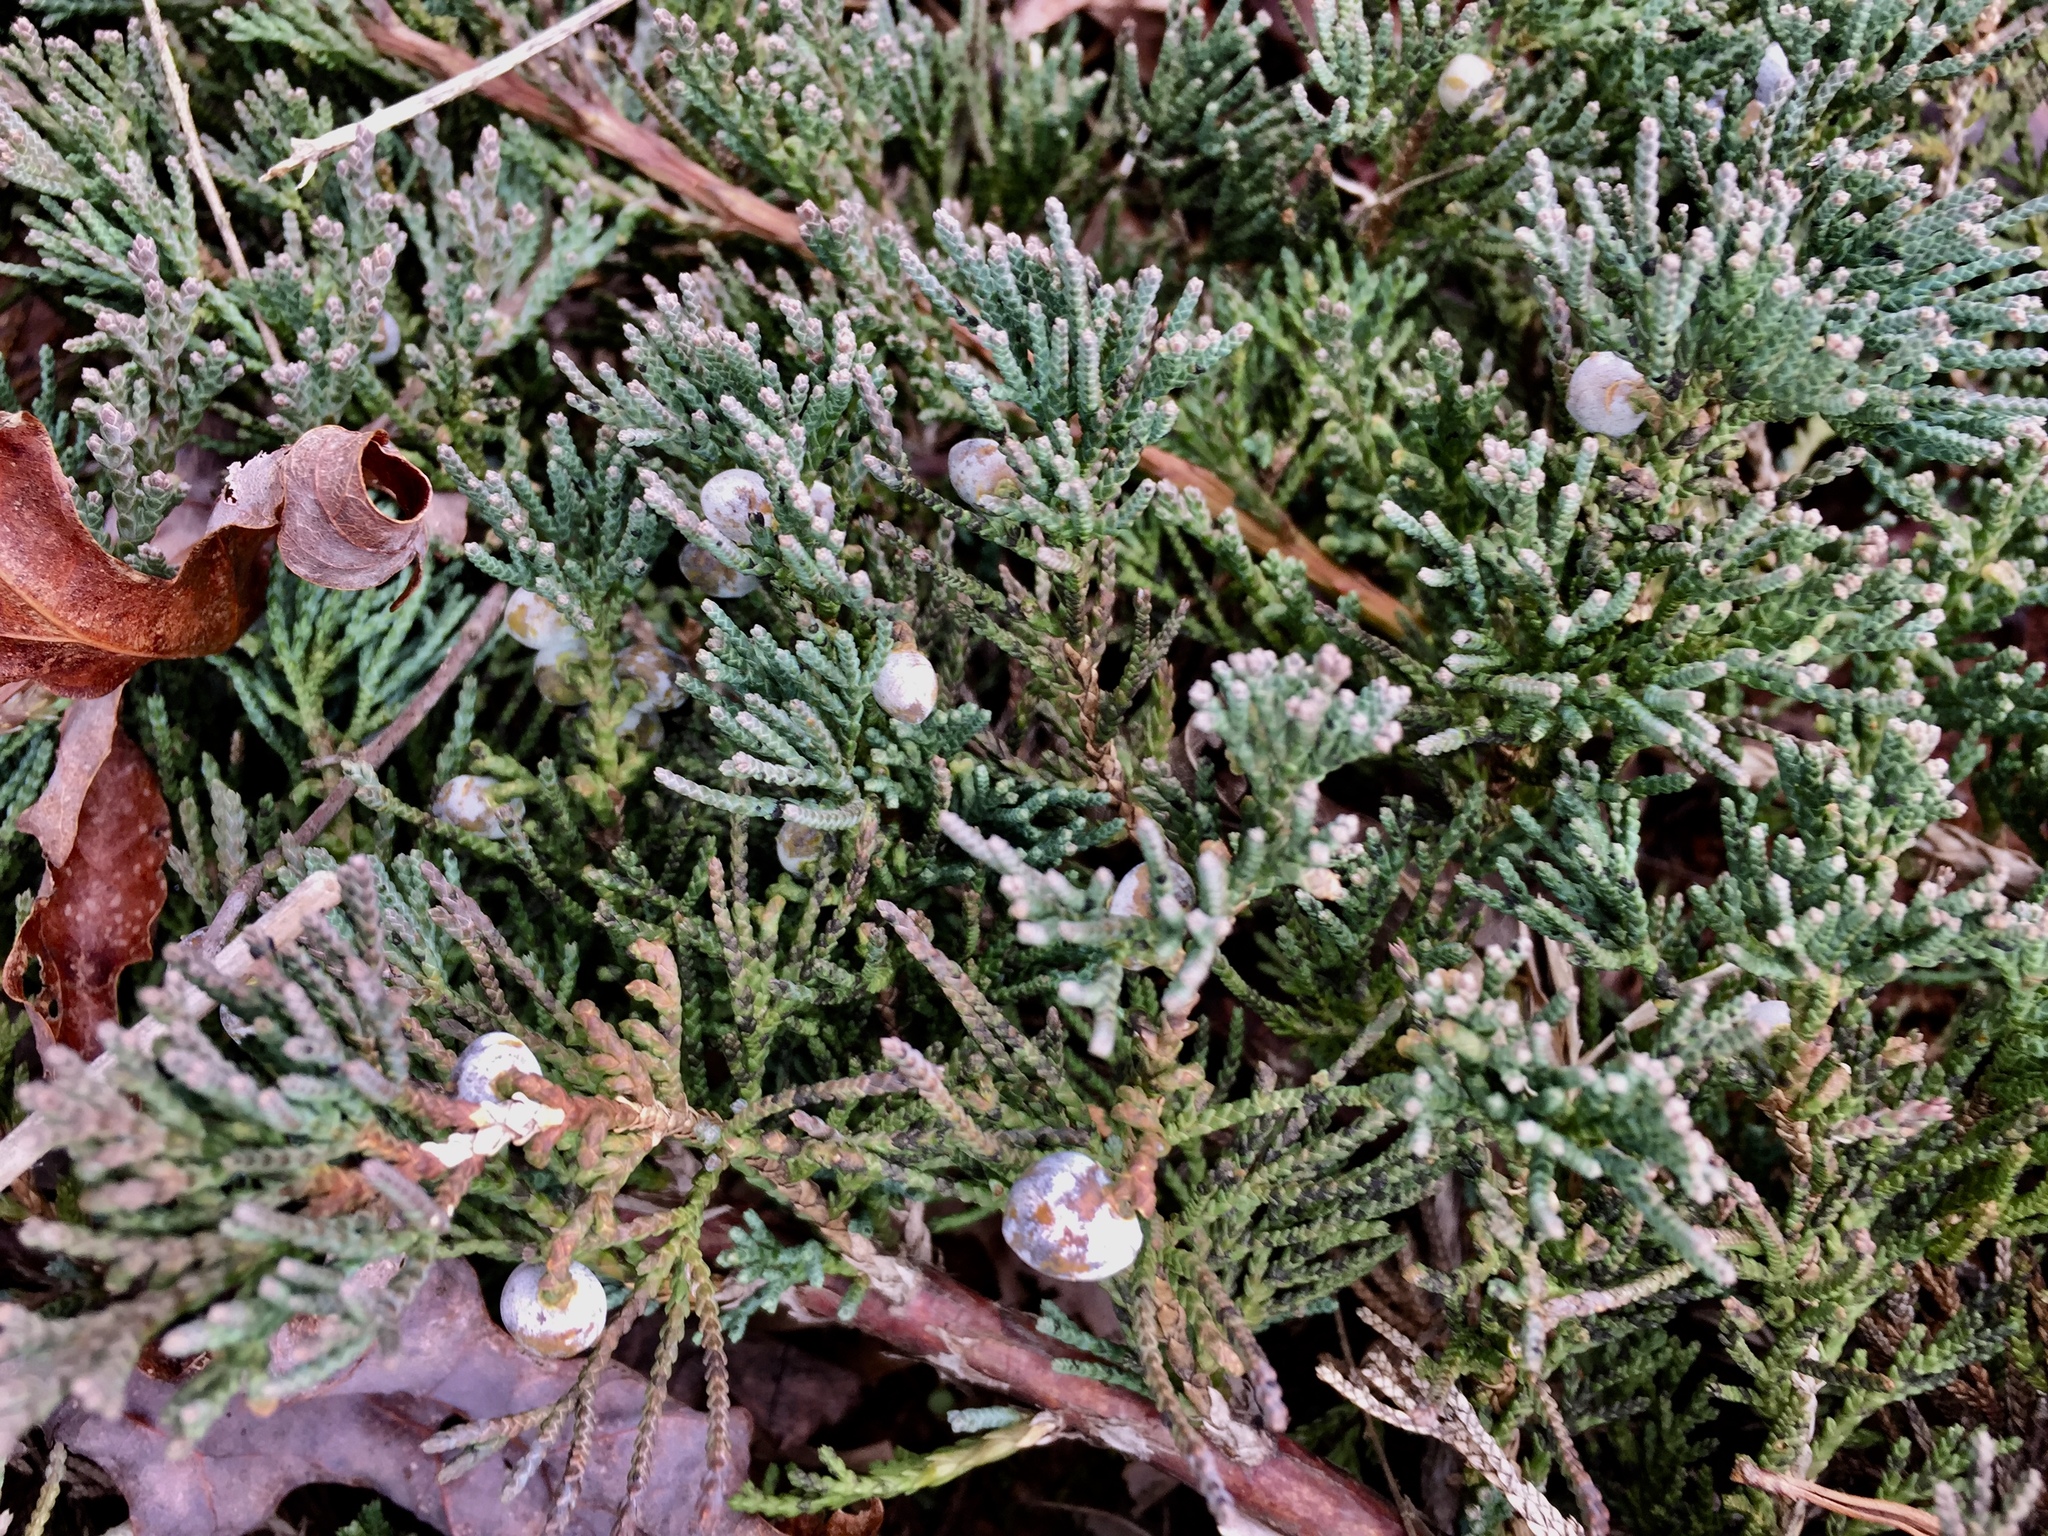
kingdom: Plantae
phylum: Tracheophyta
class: Pinopsida
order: Pinales
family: Cupressaceae
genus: Juniperus
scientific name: Juniperus horizontalis
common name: Creeping juniper
